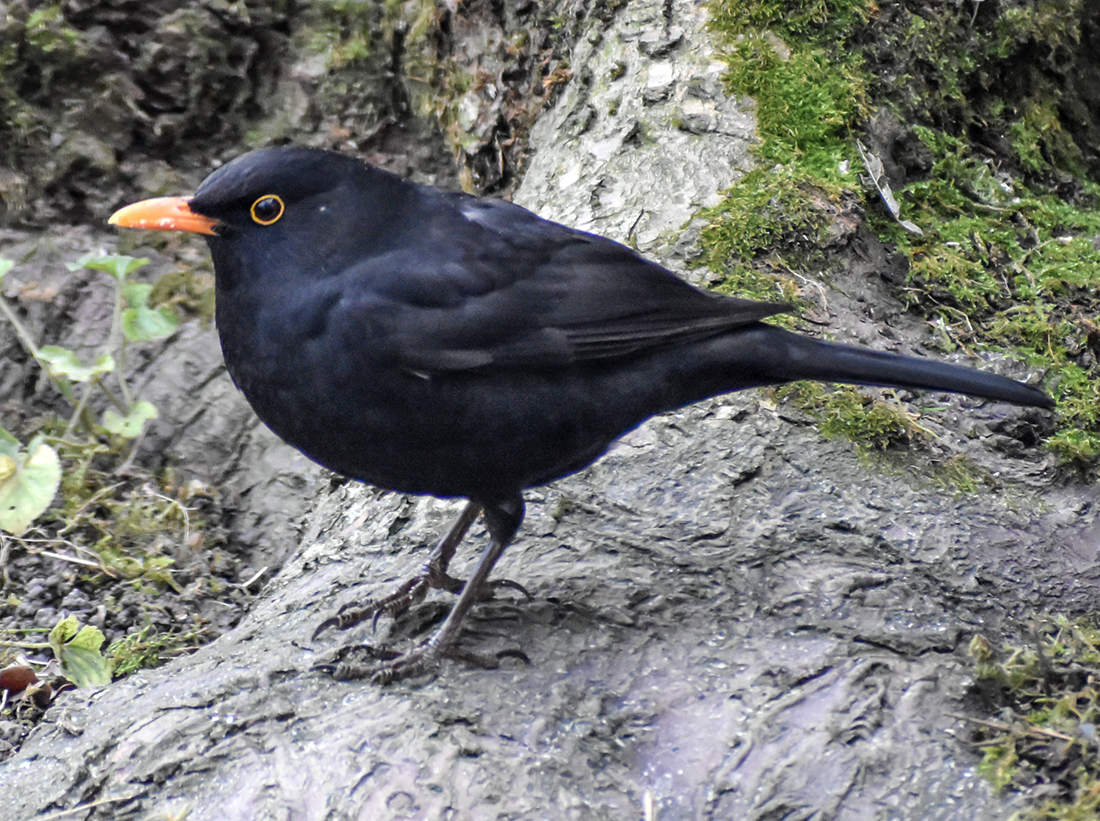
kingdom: Animalia
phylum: Chordata
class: Aves
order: Passeriformes
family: Turdidae
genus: Turdus
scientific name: Turdus merula
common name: Common blackbird
